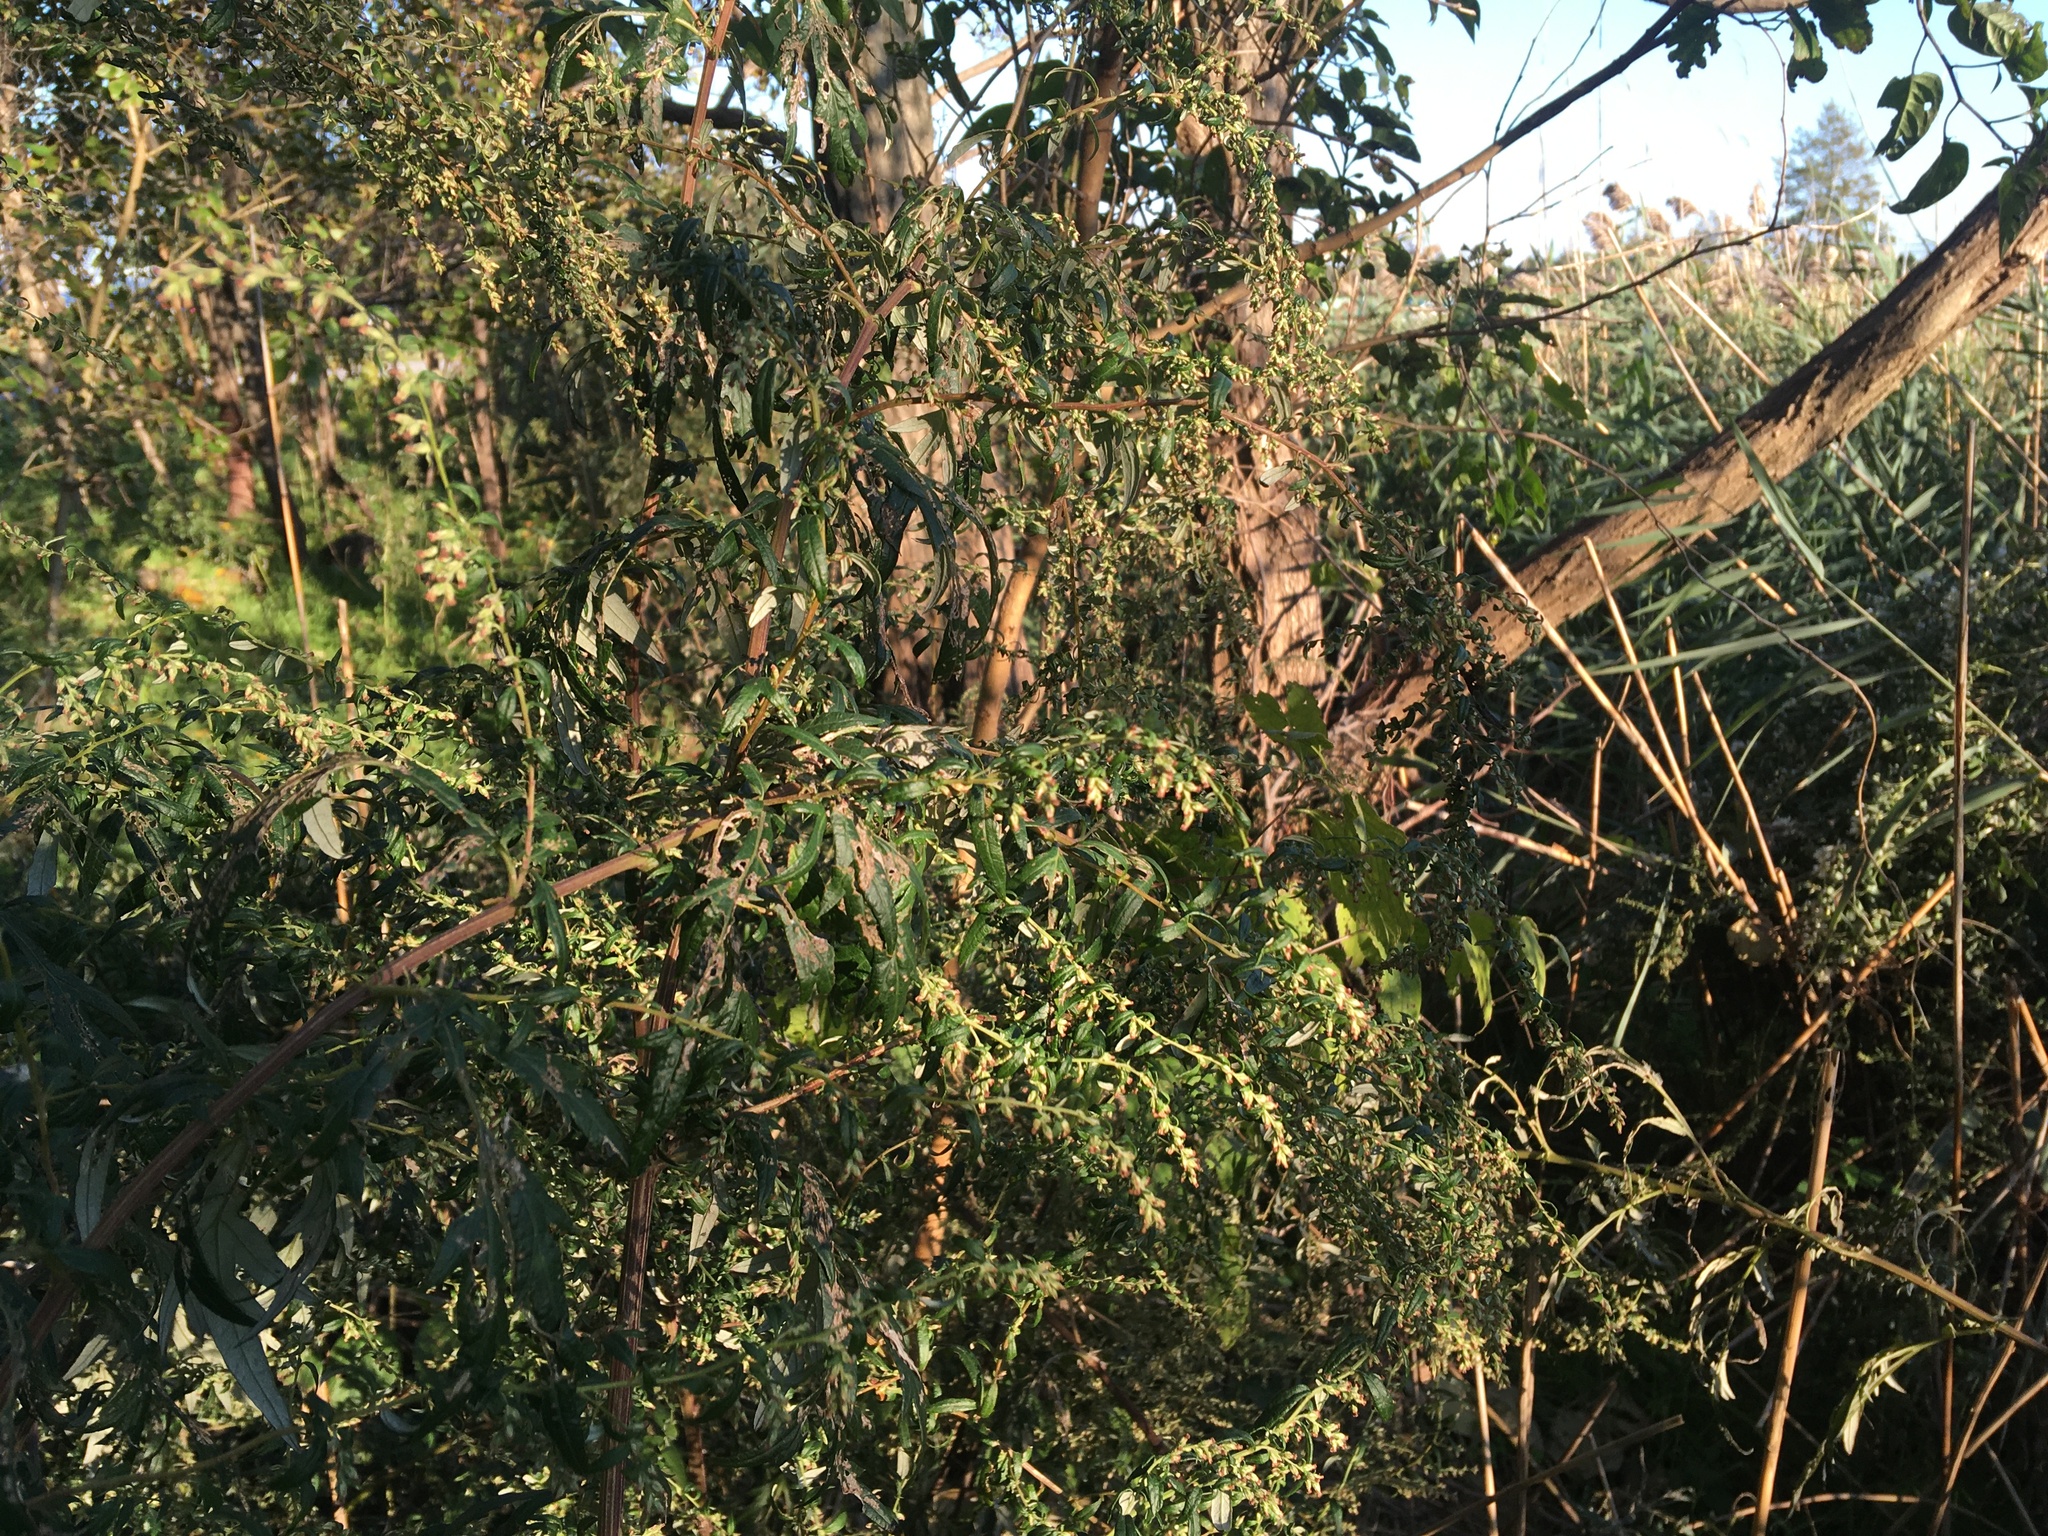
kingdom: Plantae
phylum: Tracheophyta
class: Magnoliopsida
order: Asterales
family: Asteraceae
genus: Artemisia
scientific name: Artemisia vulgaris
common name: Mugwort
